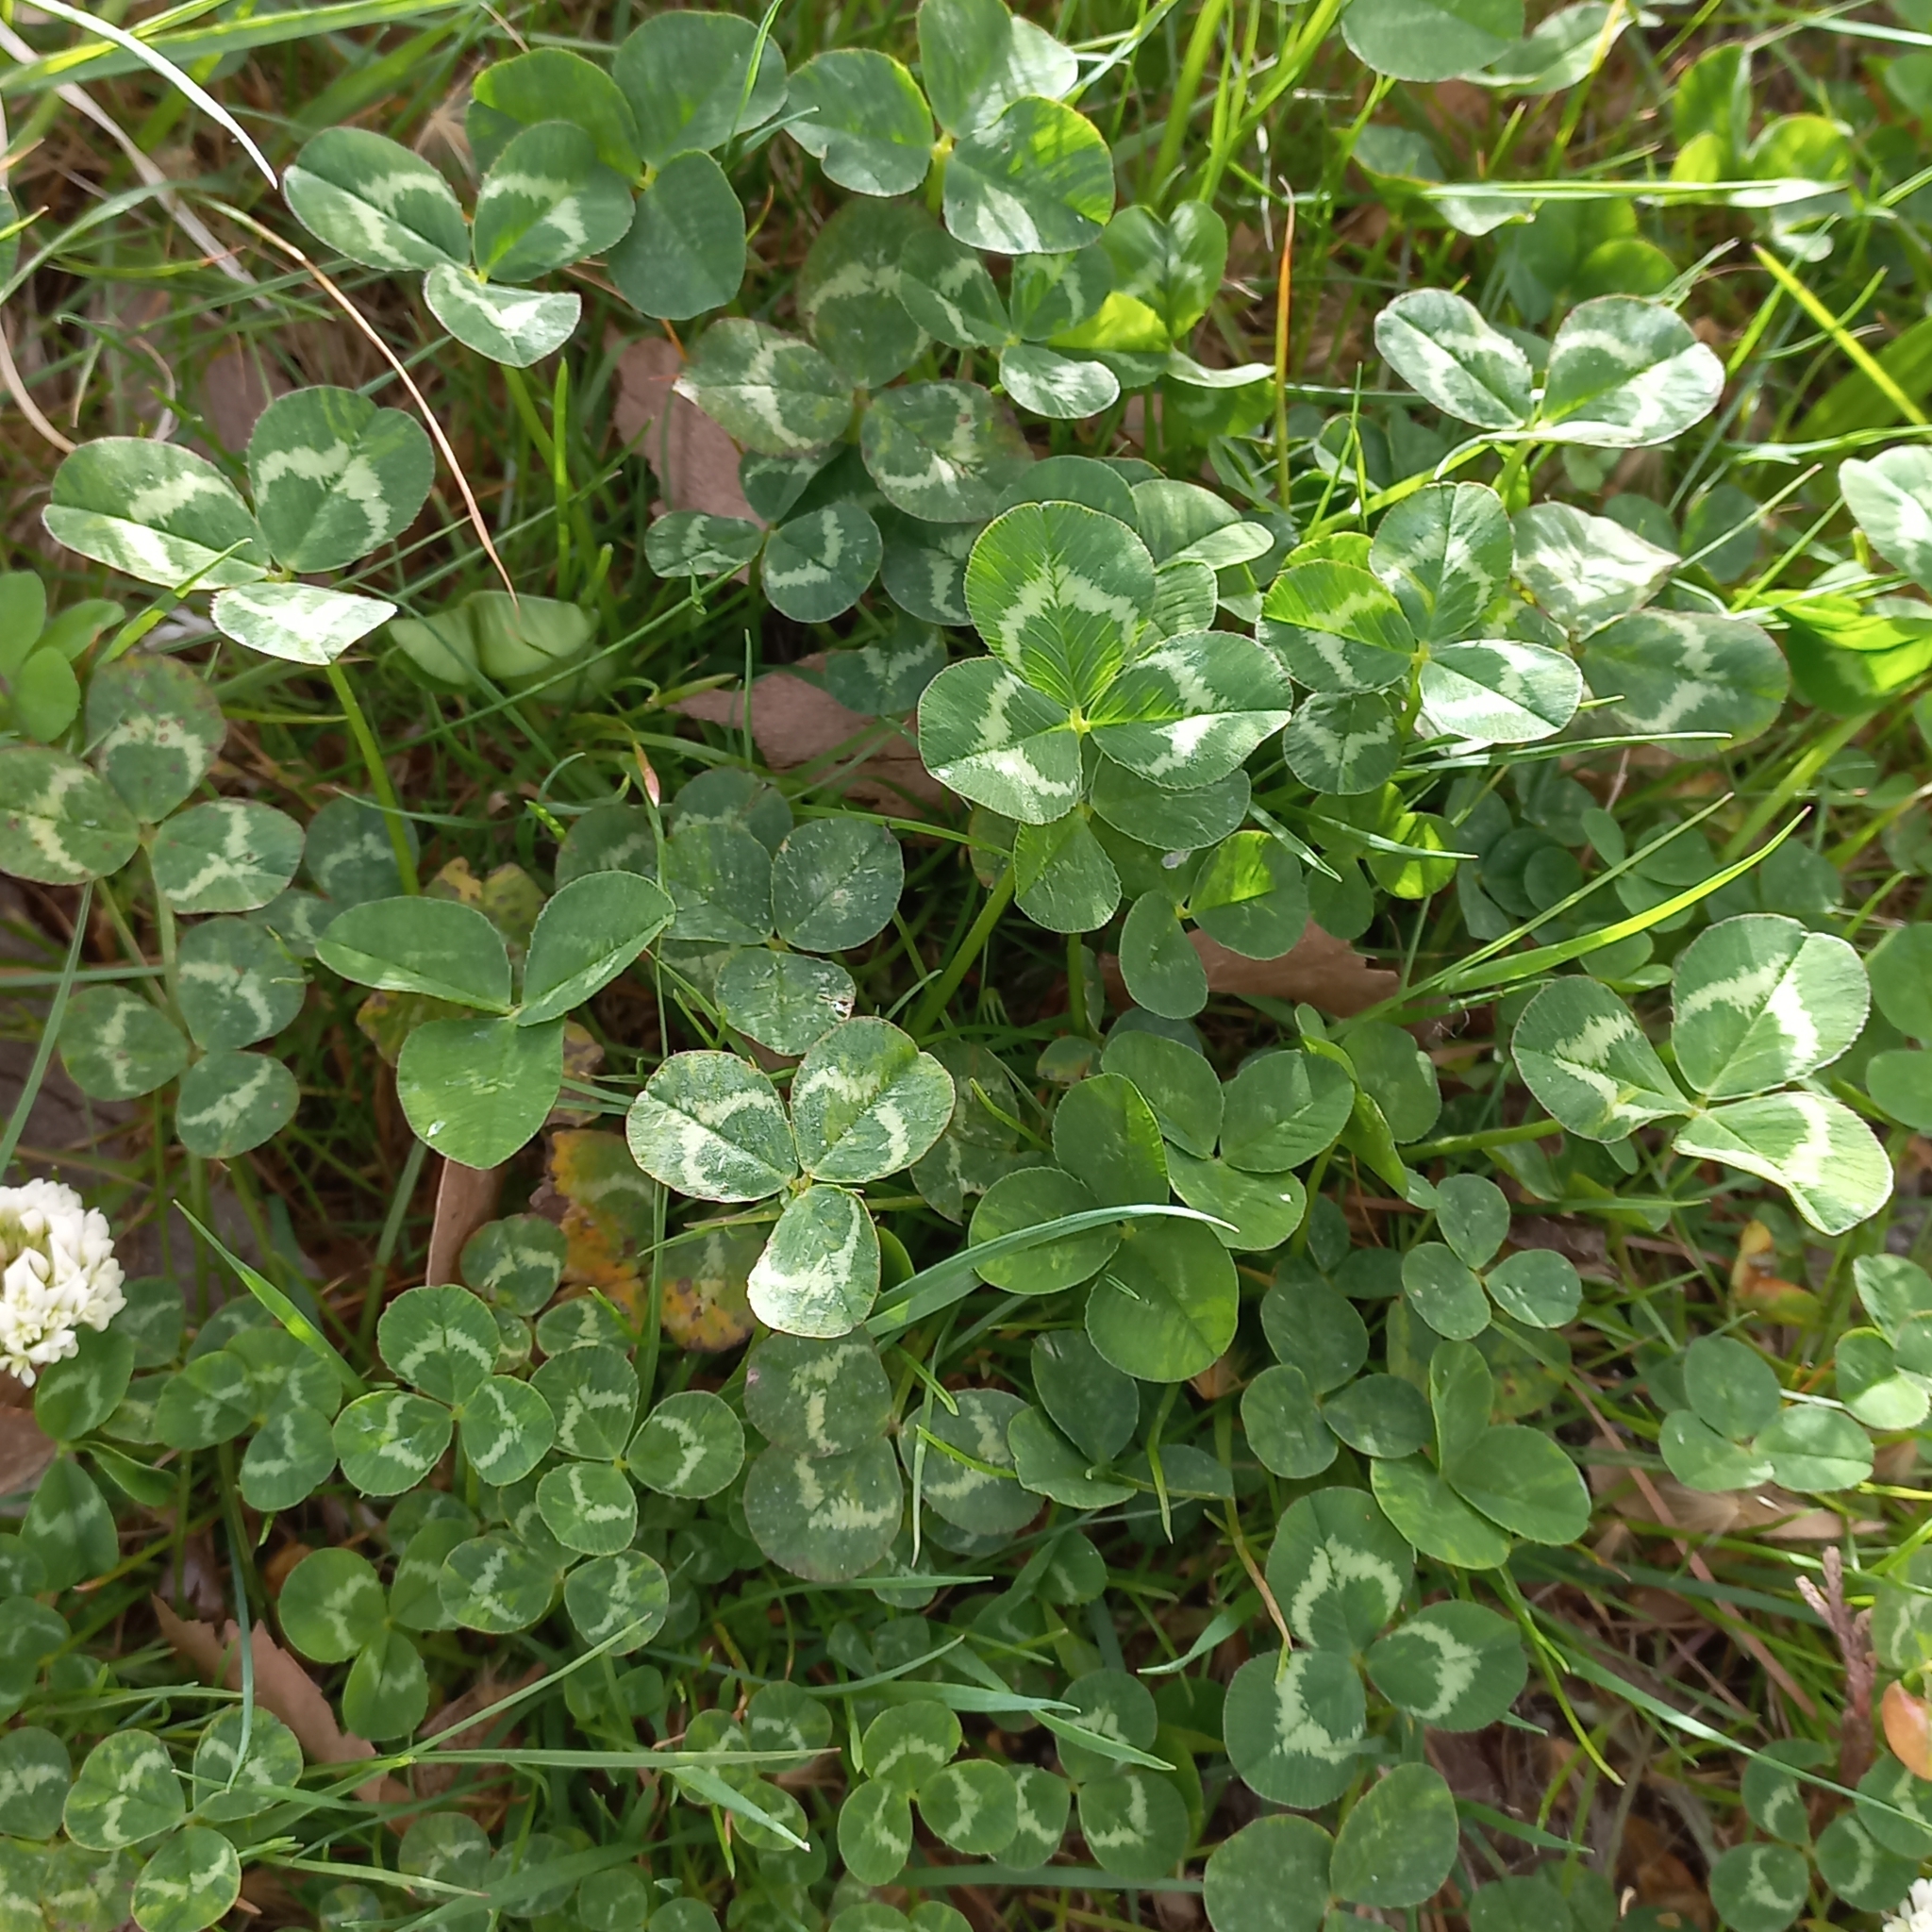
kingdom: Plantae
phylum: Tracheophyta
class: Magnoliopsida
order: Fabales
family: Fabaceae
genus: Trifolium
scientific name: Trifolium repens
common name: White clover
